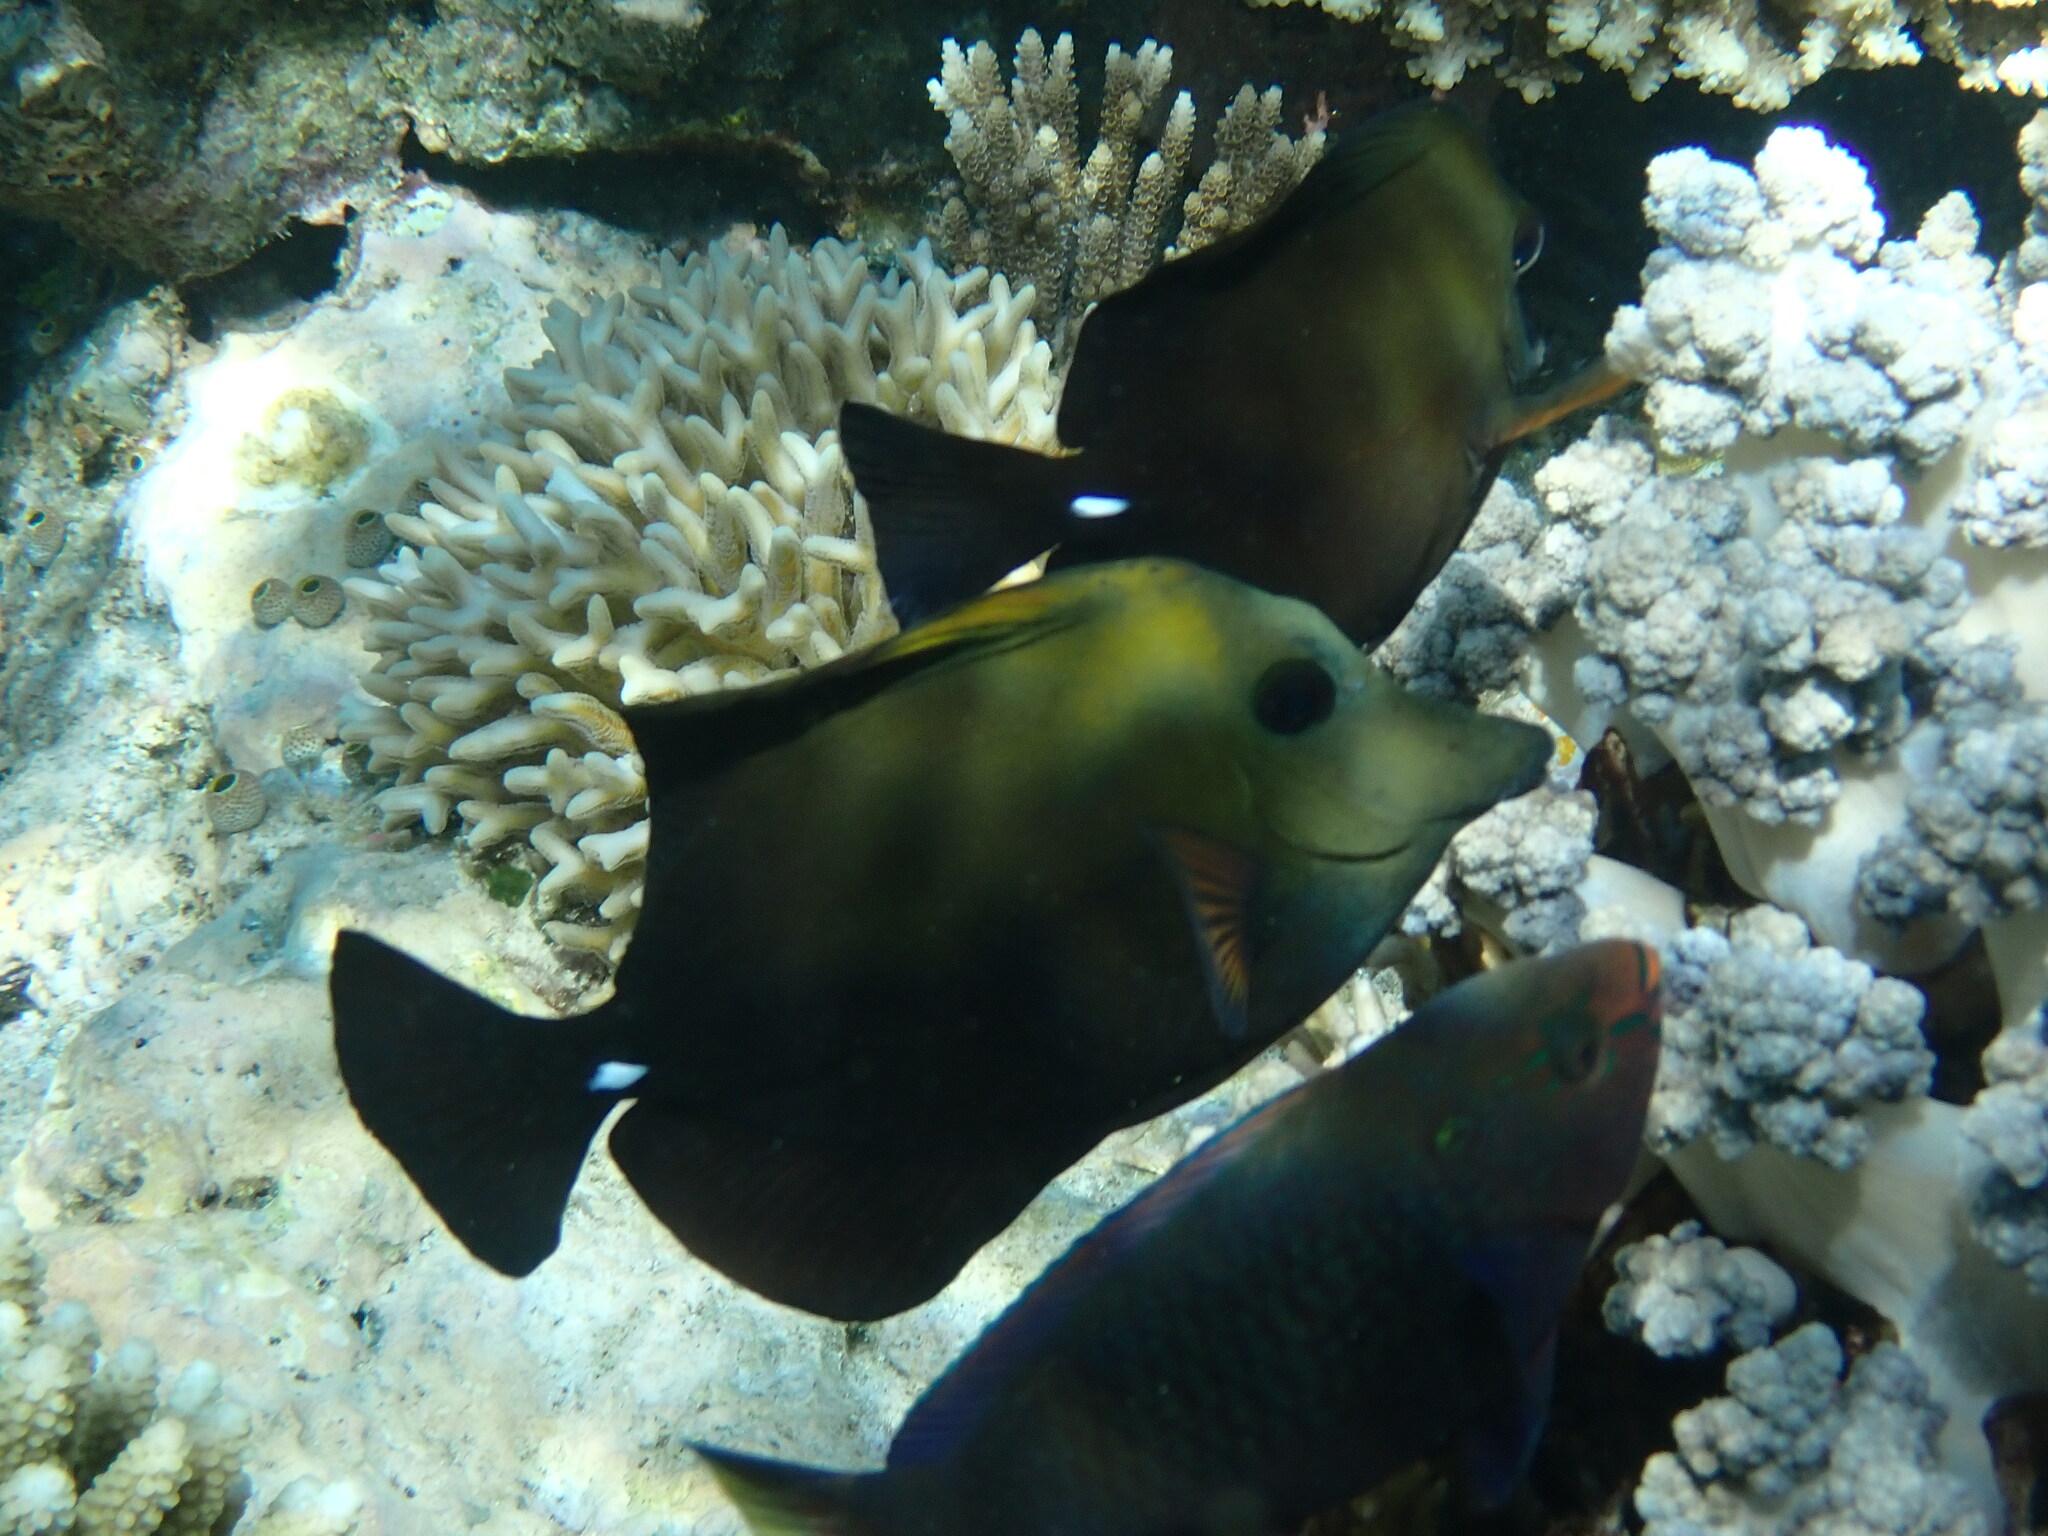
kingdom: Animalia
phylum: Chordata
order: Perciformes
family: Acanthuridae
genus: Zebrasoma
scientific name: Zebrasoma scopas
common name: Twotone tang
